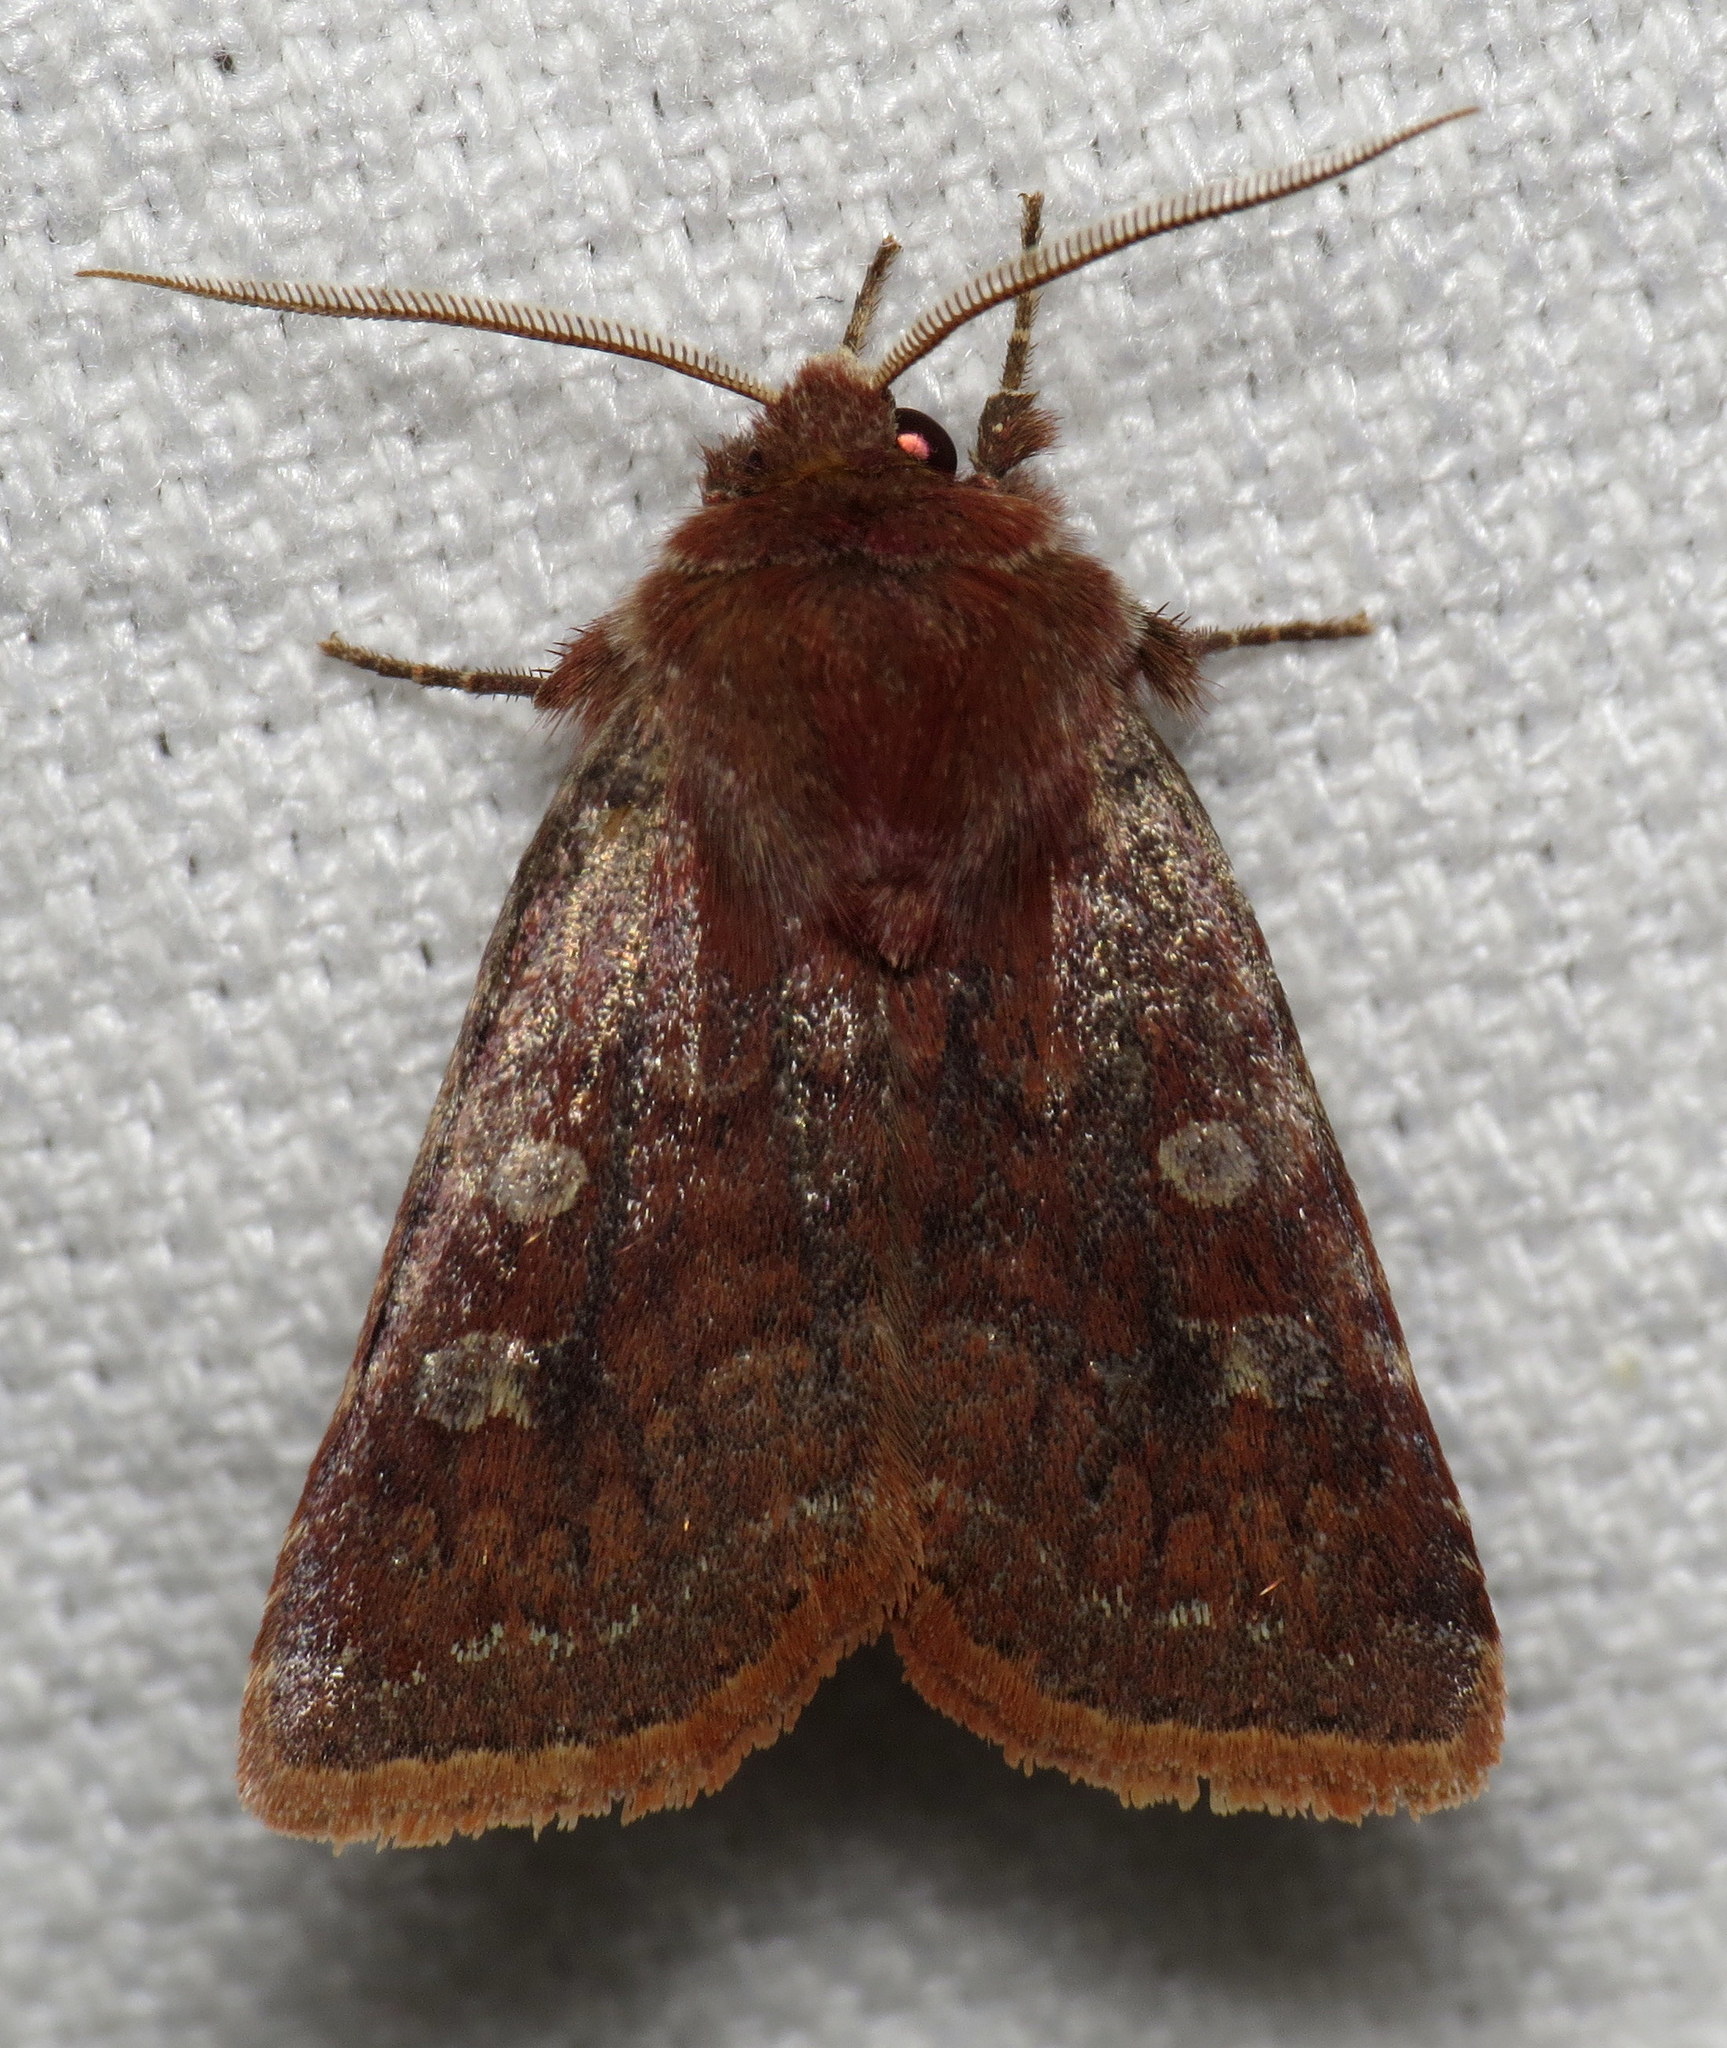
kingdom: Animalia
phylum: Arthropoda
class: Insecta
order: Lepidoptera
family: Noctuidae
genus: Cerastis
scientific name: Cerastis tenebrifera
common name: Reddish speckled dart
